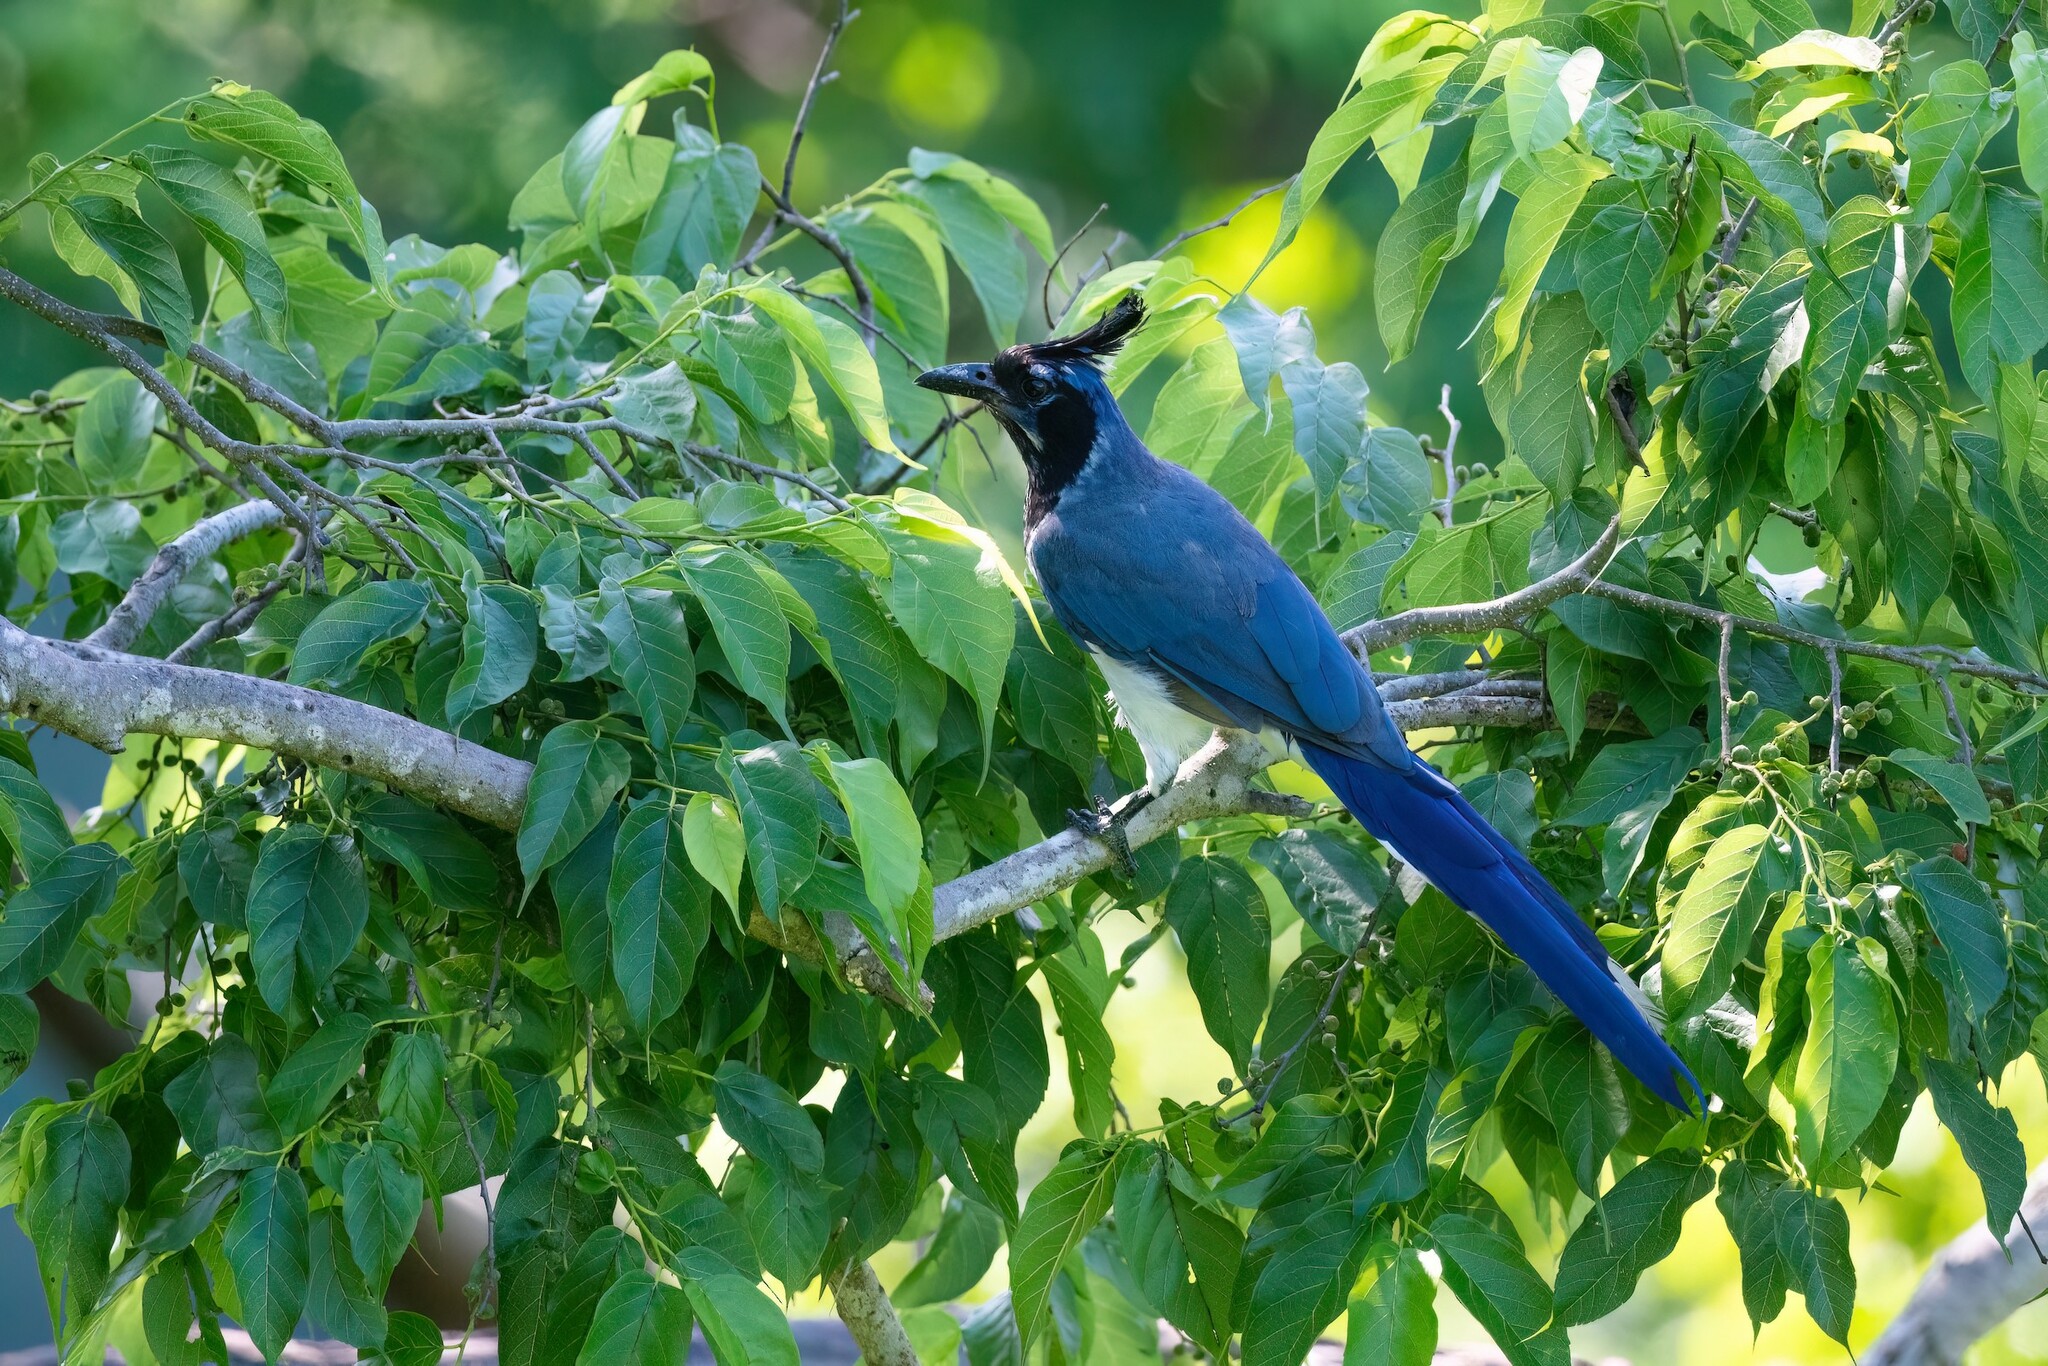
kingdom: Animalia
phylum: Chordata
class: Aves
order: Passeriformes
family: Corvidae
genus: Calocitta
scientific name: Calocitta colliei
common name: Black-throated magpie-jay
